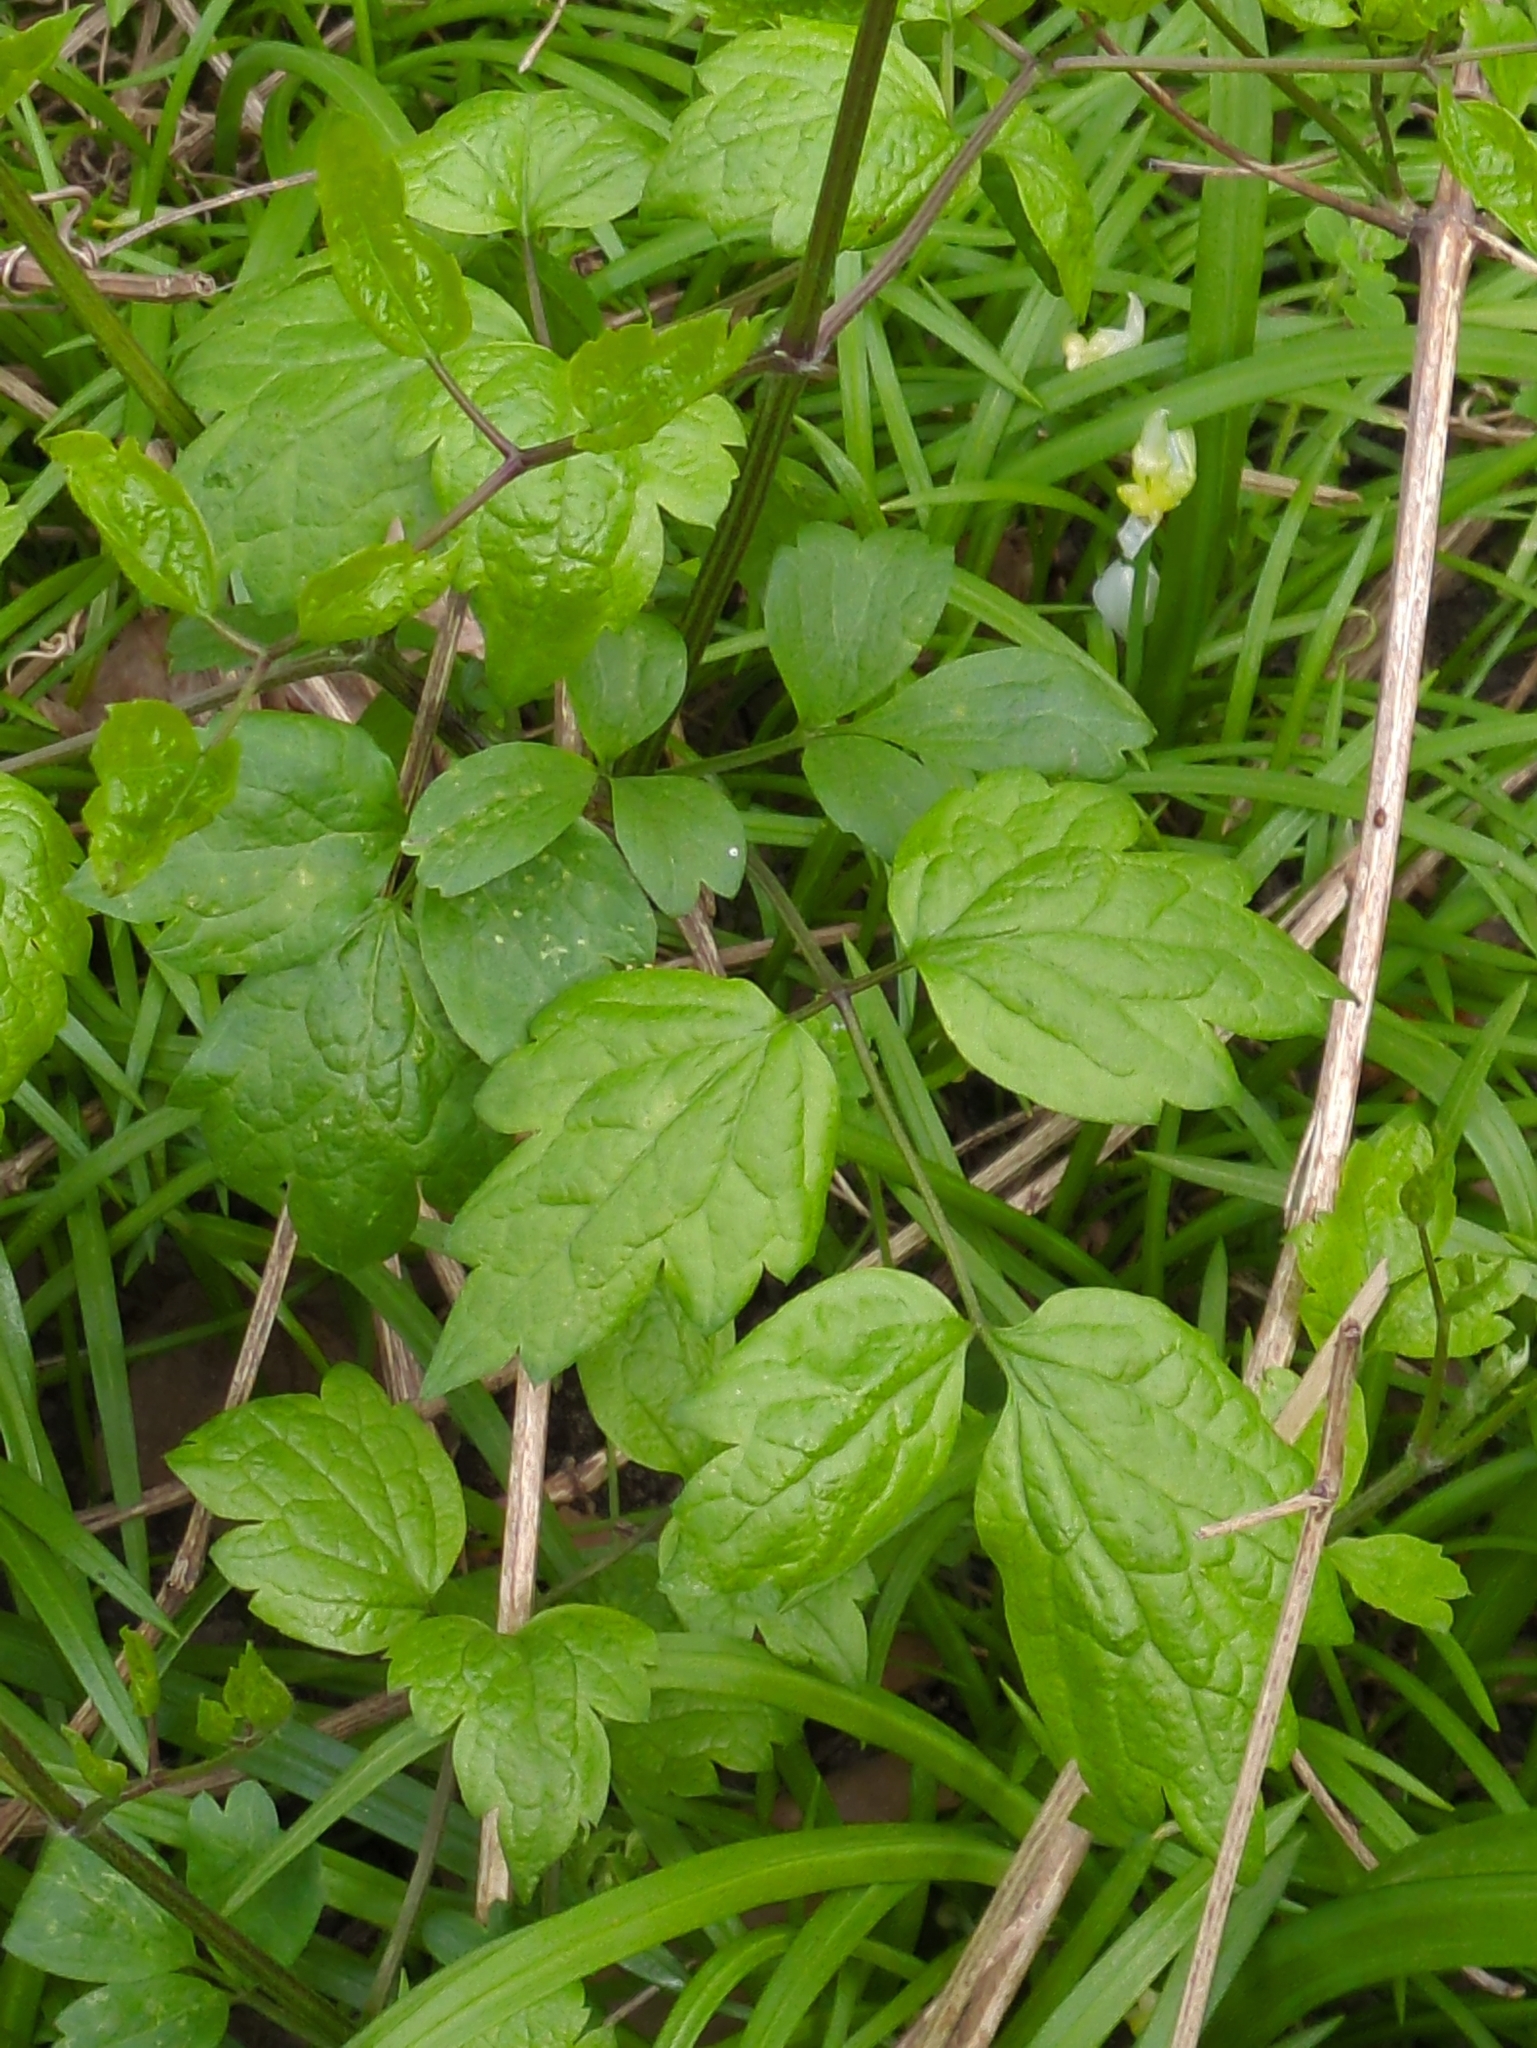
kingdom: Plantae
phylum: Tracheophyta
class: Magnoliopsida
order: Ranunculales
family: Ranunculaceae
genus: Clematis
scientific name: Clematis vitalba
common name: Evergreen clematis
